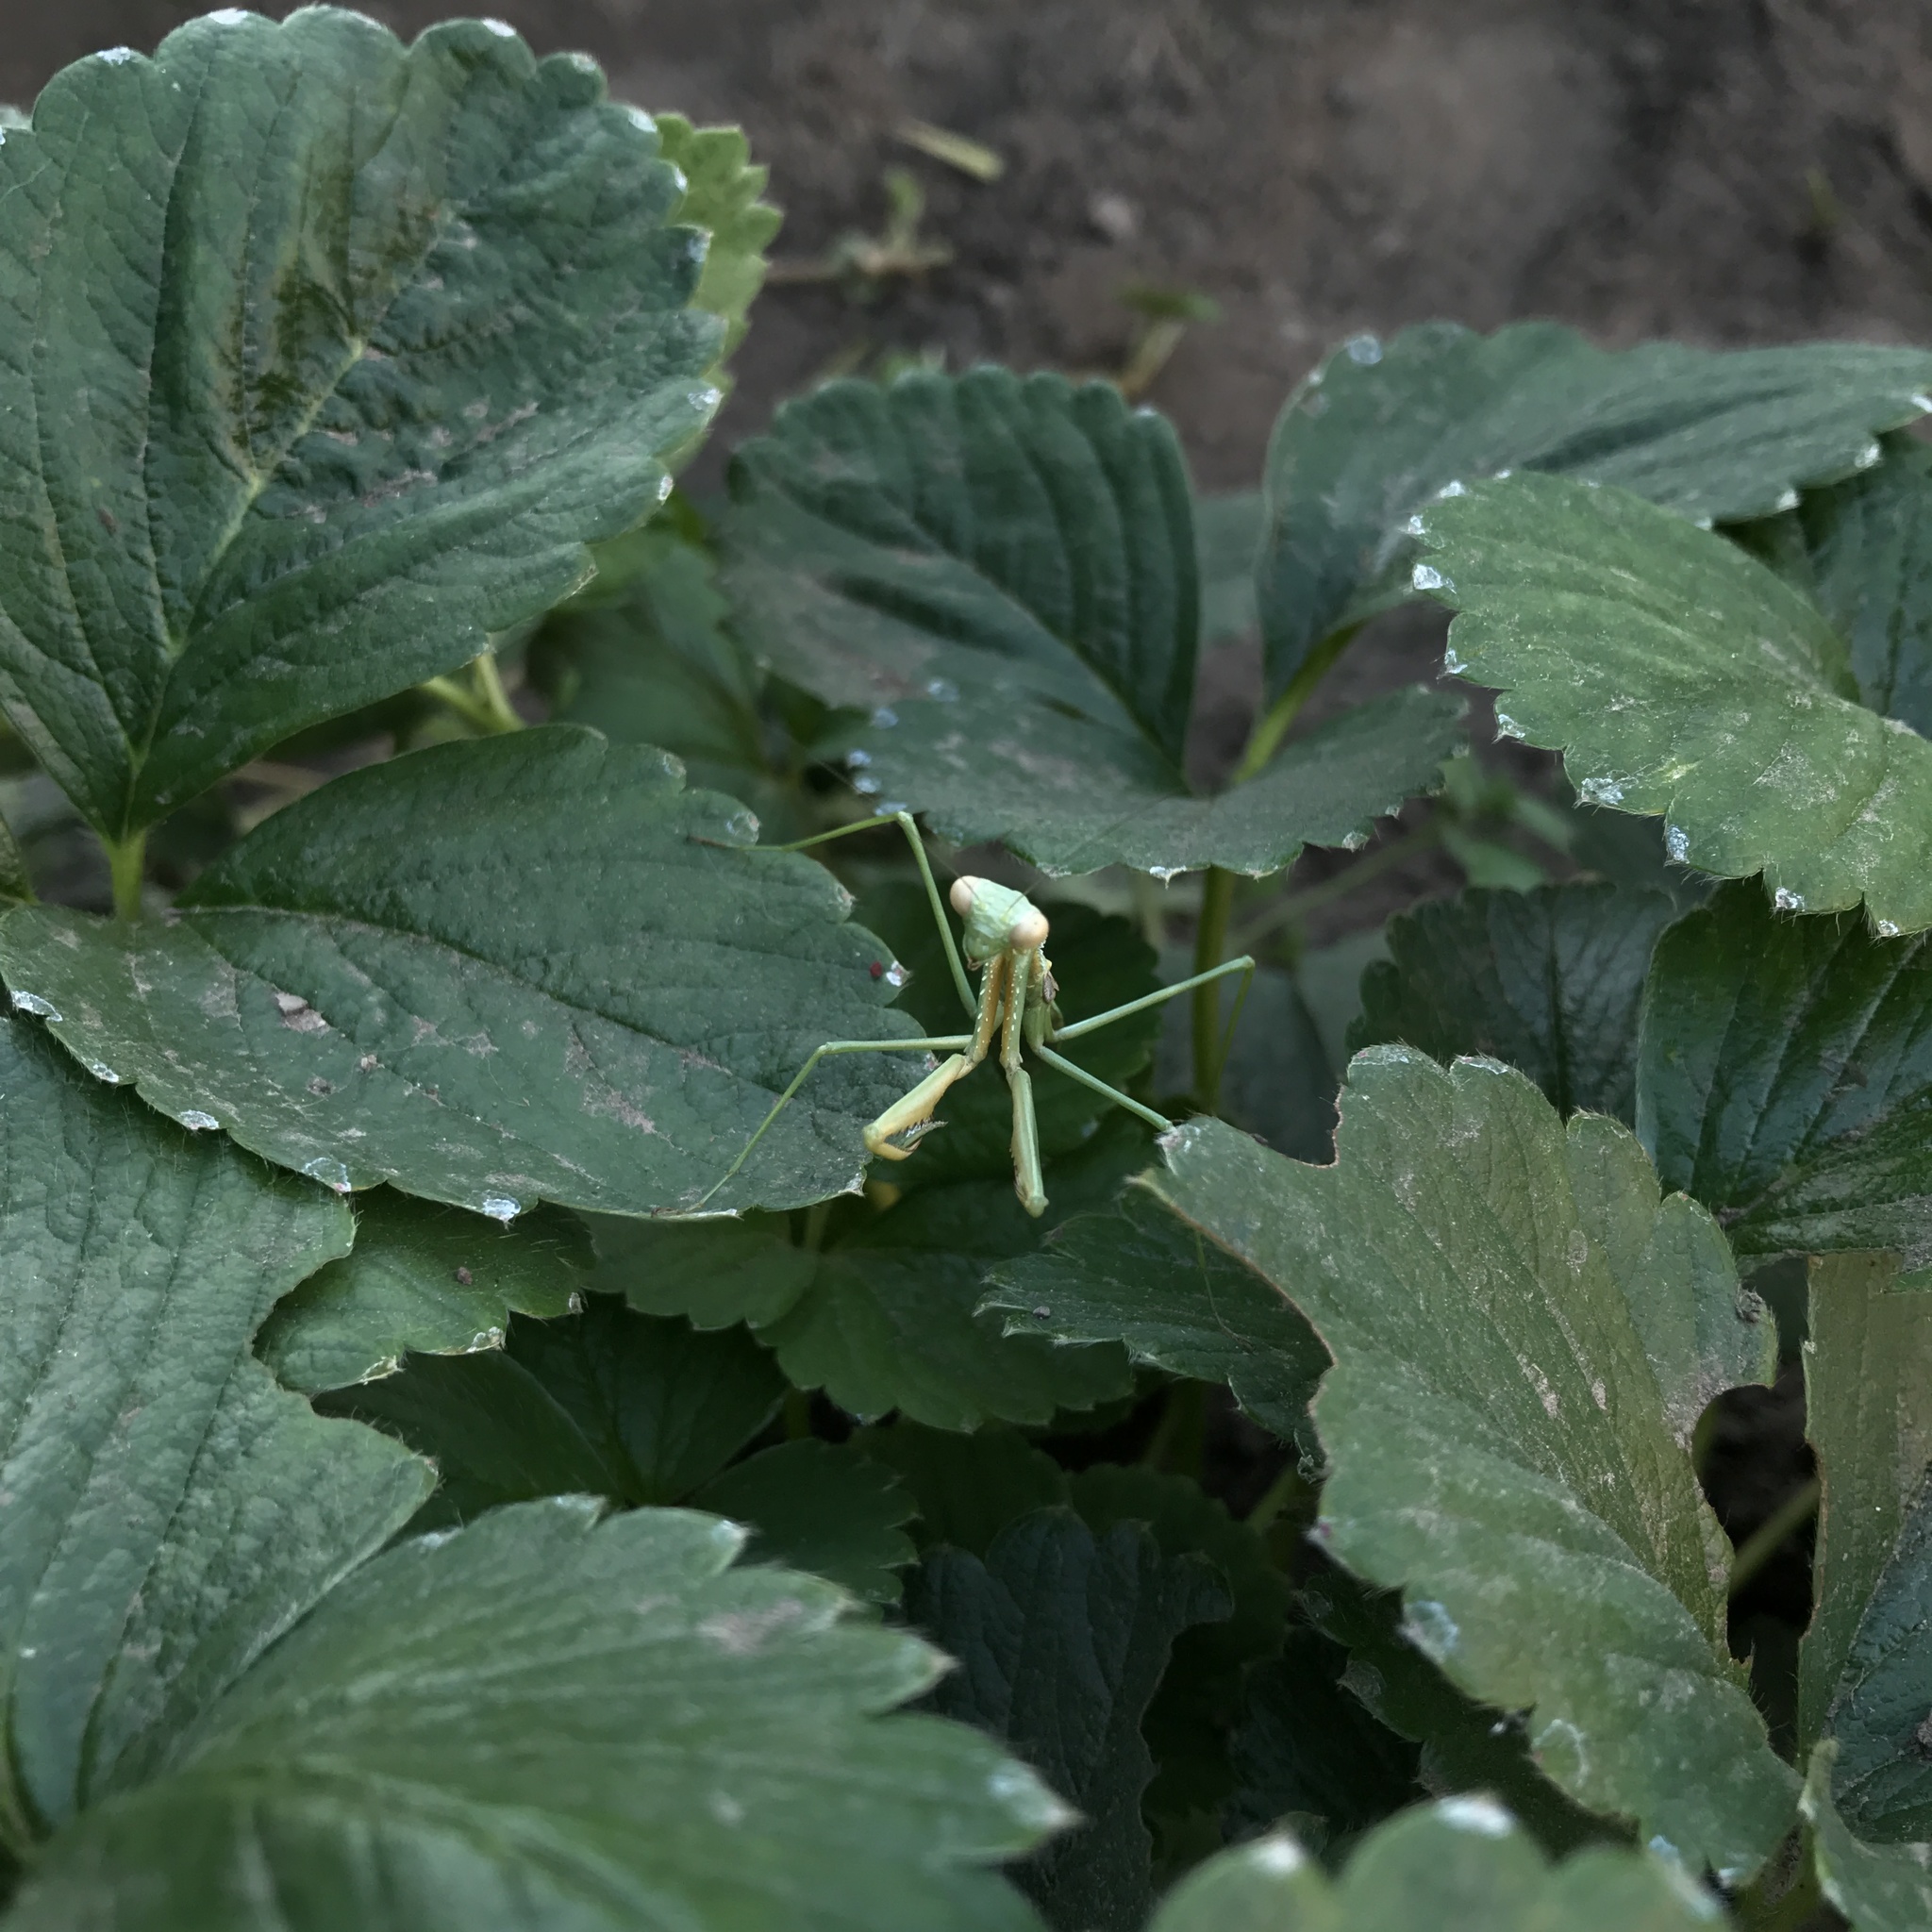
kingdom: Animalia
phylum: Arthropoda
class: Insecta
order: Mantodea
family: Coptopterygidae
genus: Coptopteryx
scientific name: Coptopteryx gayi
